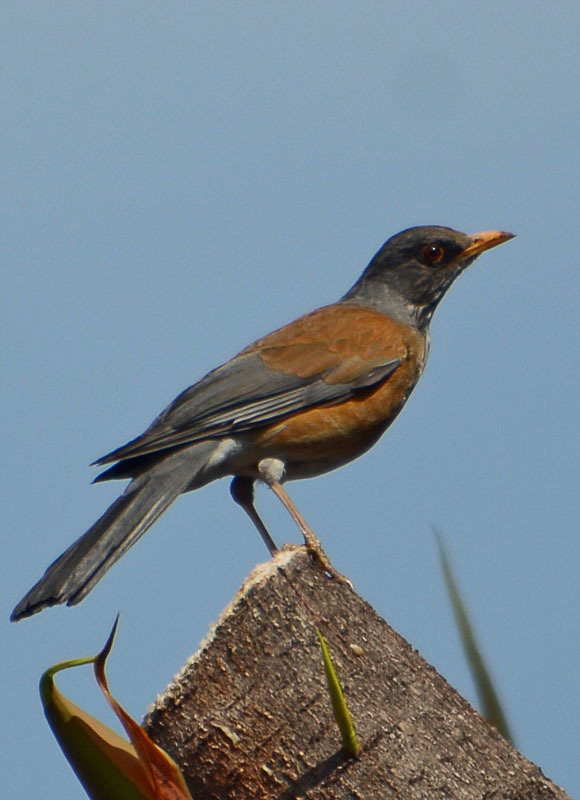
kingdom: Animalia
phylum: Chordata
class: Aves
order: Passeriformes
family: Turdidae
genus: Turdus
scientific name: Turdus rufopalliatus
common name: Rufous-backed robin
